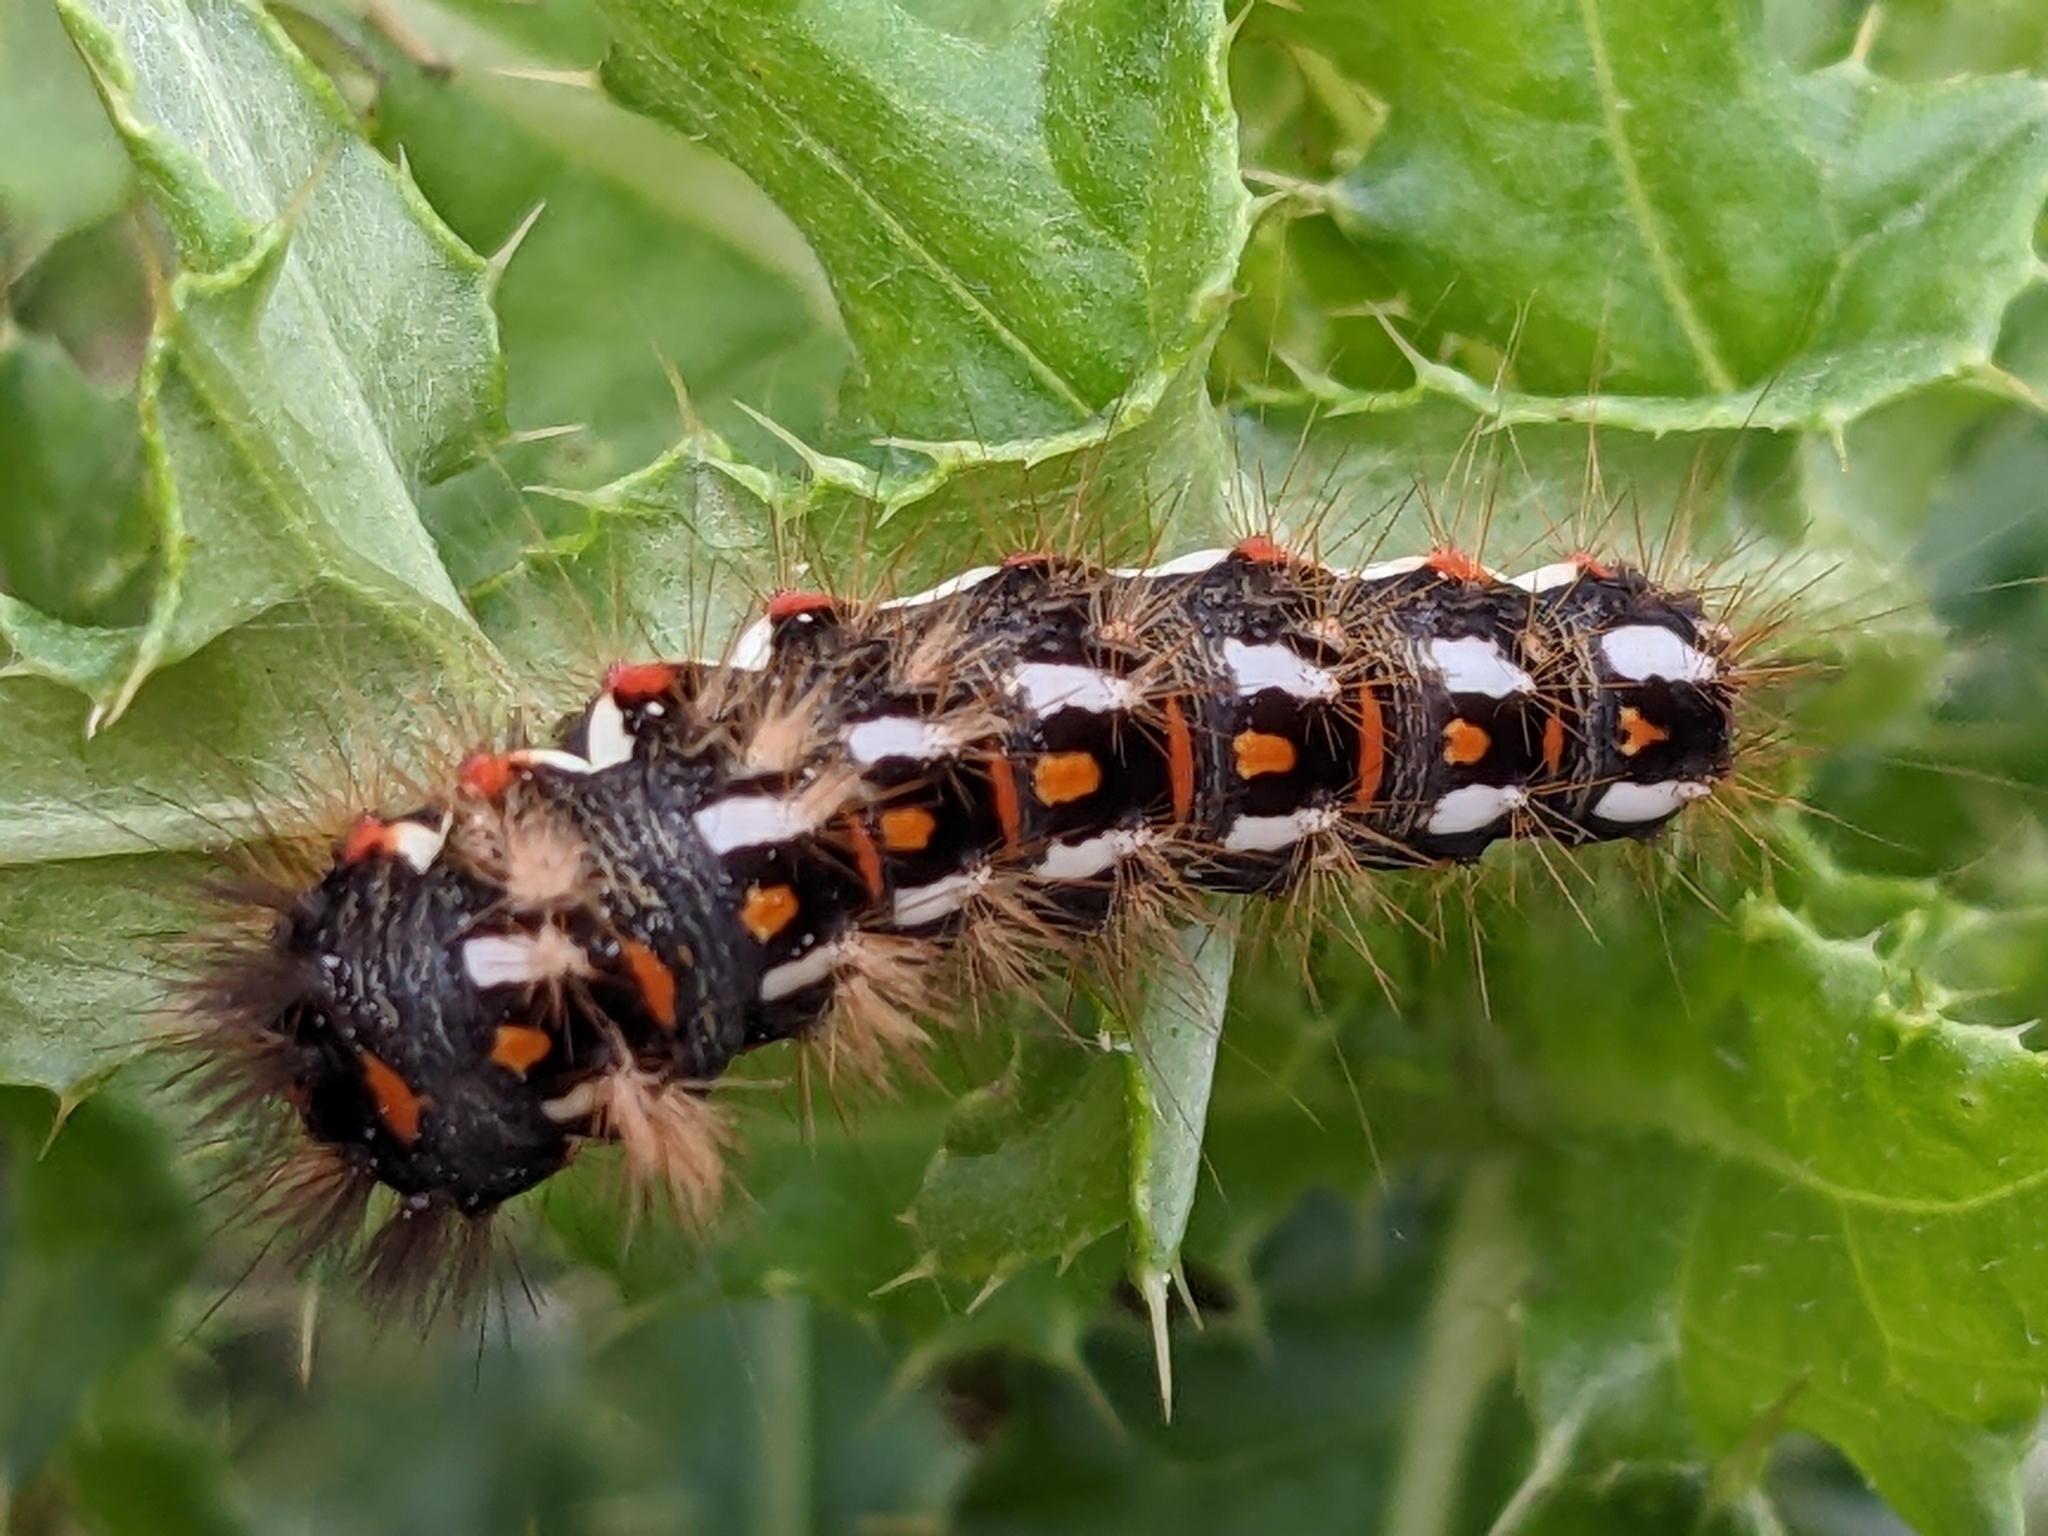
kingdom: Animalia
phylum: Arthropoda
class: Insecta
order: Lepidoptera
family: Noctuidae
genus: Acronicta
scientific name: Acronicta rumicis
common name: Knot grass
